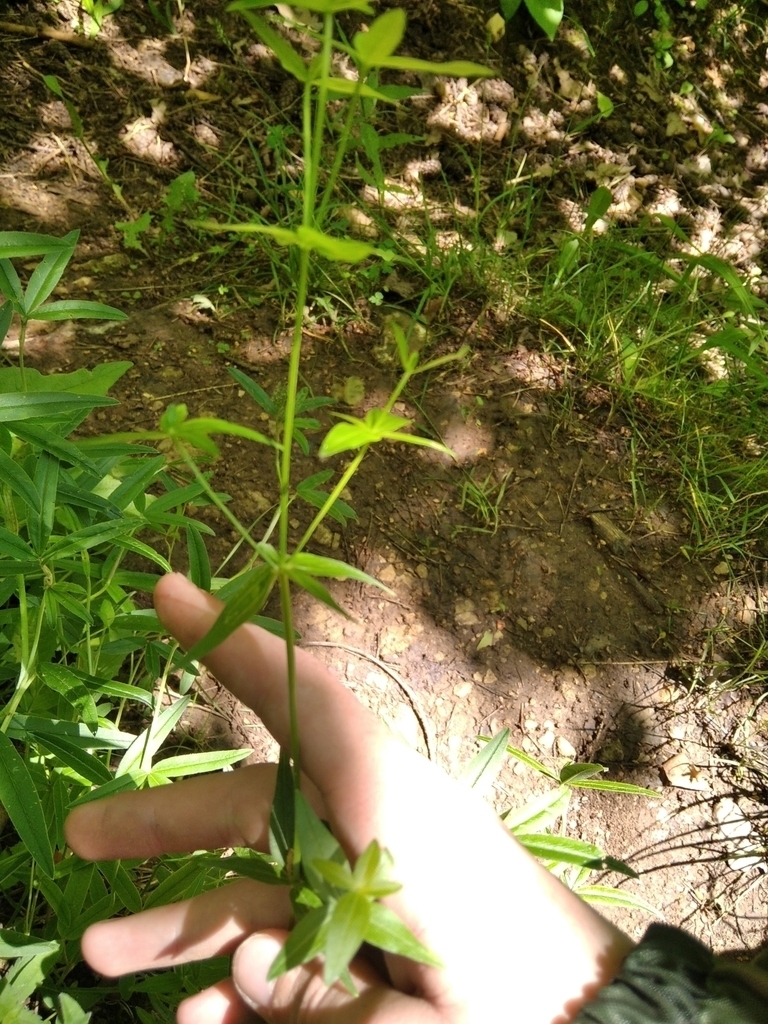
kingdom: Plantae
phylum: Tracheophyta
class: Magnoliopsida
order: Gentianales
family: Rubiaceae
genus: Galium
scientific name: Galium boreale
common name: Northern bedstraw
